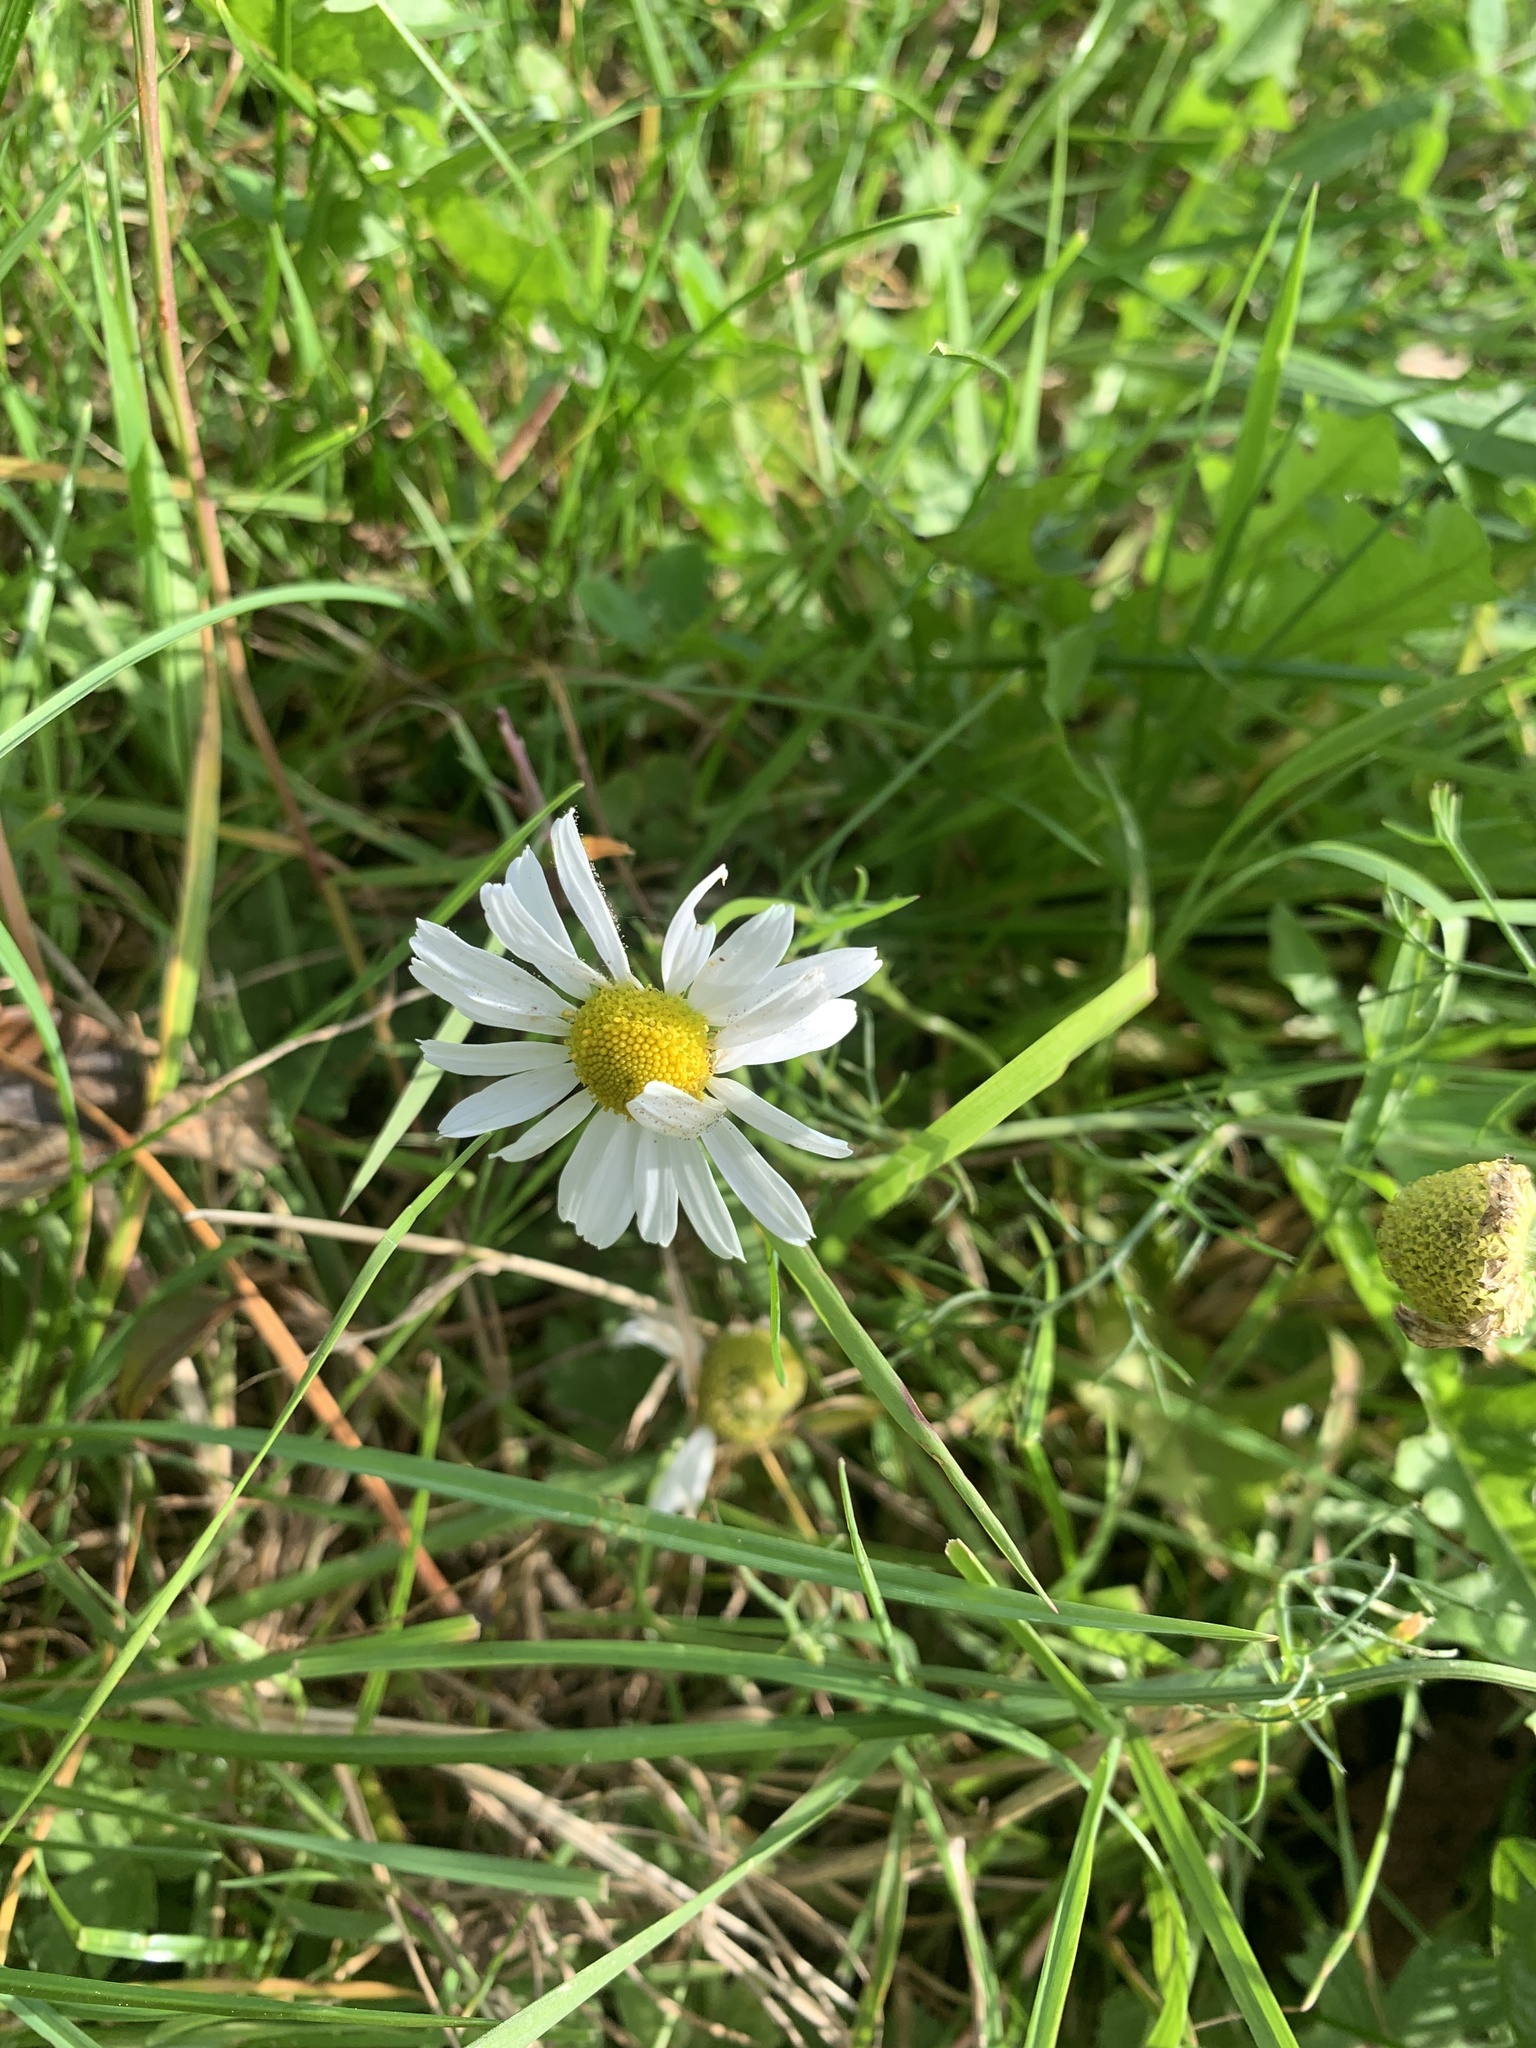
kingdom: Plantae
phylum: Tracheophyta
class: Magnoliopsida
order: Asterales
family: Asteraceae
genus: Tripleurospermum
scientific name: Tripleurospermum inodorum
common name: Scentless mayweed
